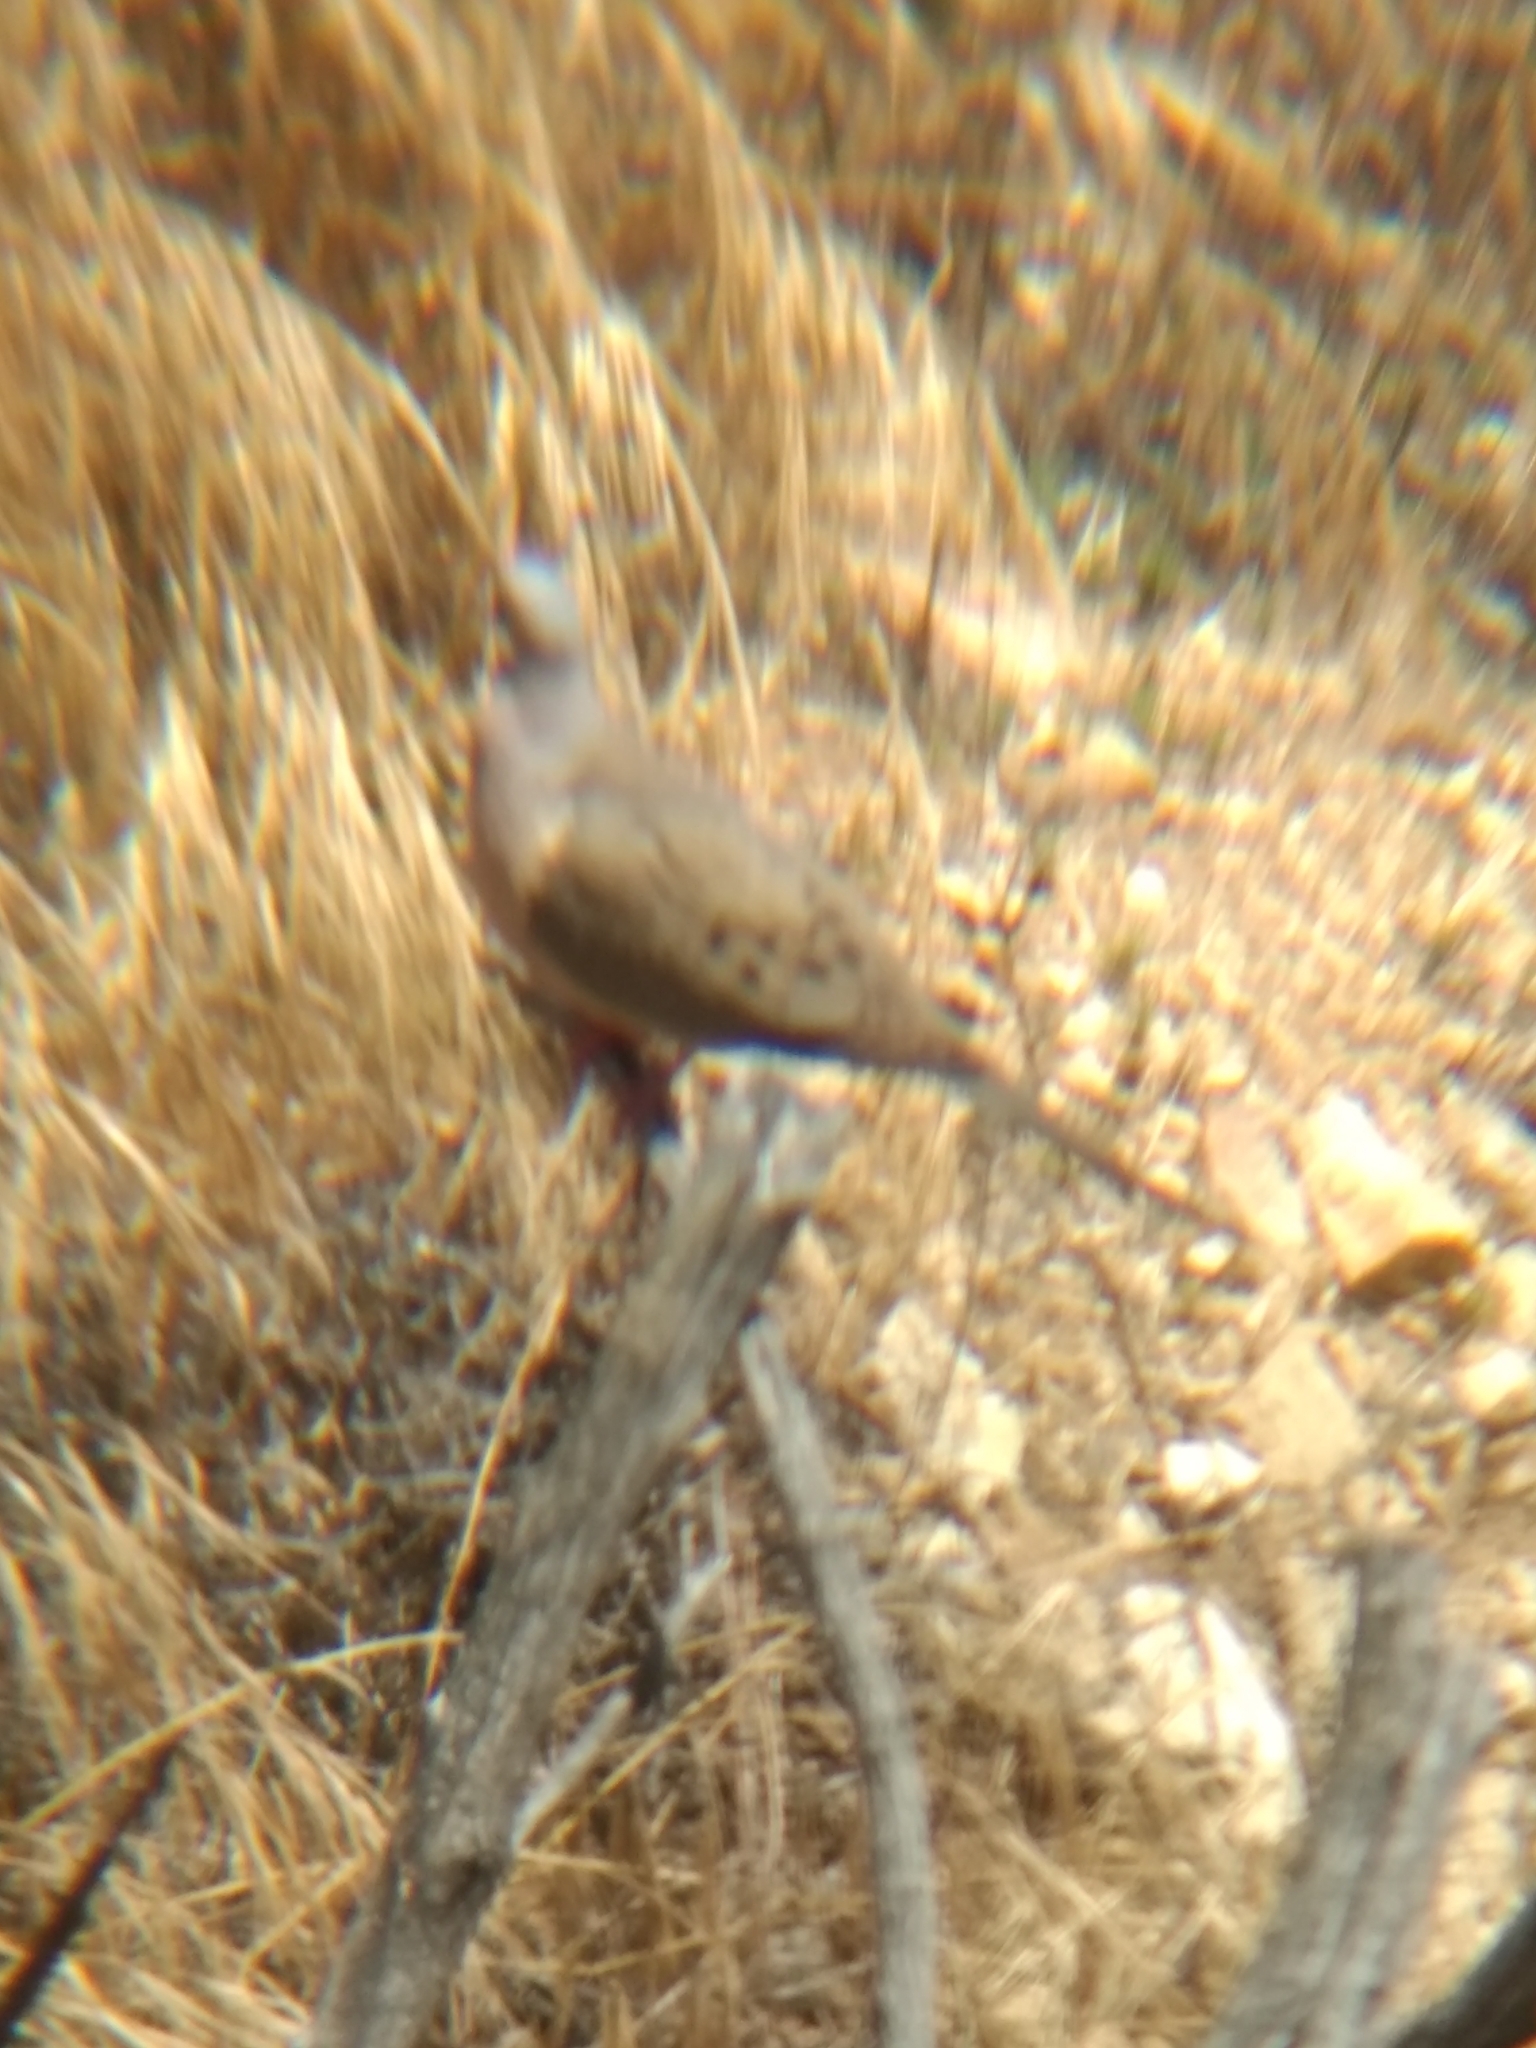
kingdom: Animalia
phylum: Chordata
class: Aves
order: Columbiformes
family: Columbidae
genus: Zenaida
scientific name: Zenaida macroura
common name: Mourning dove
